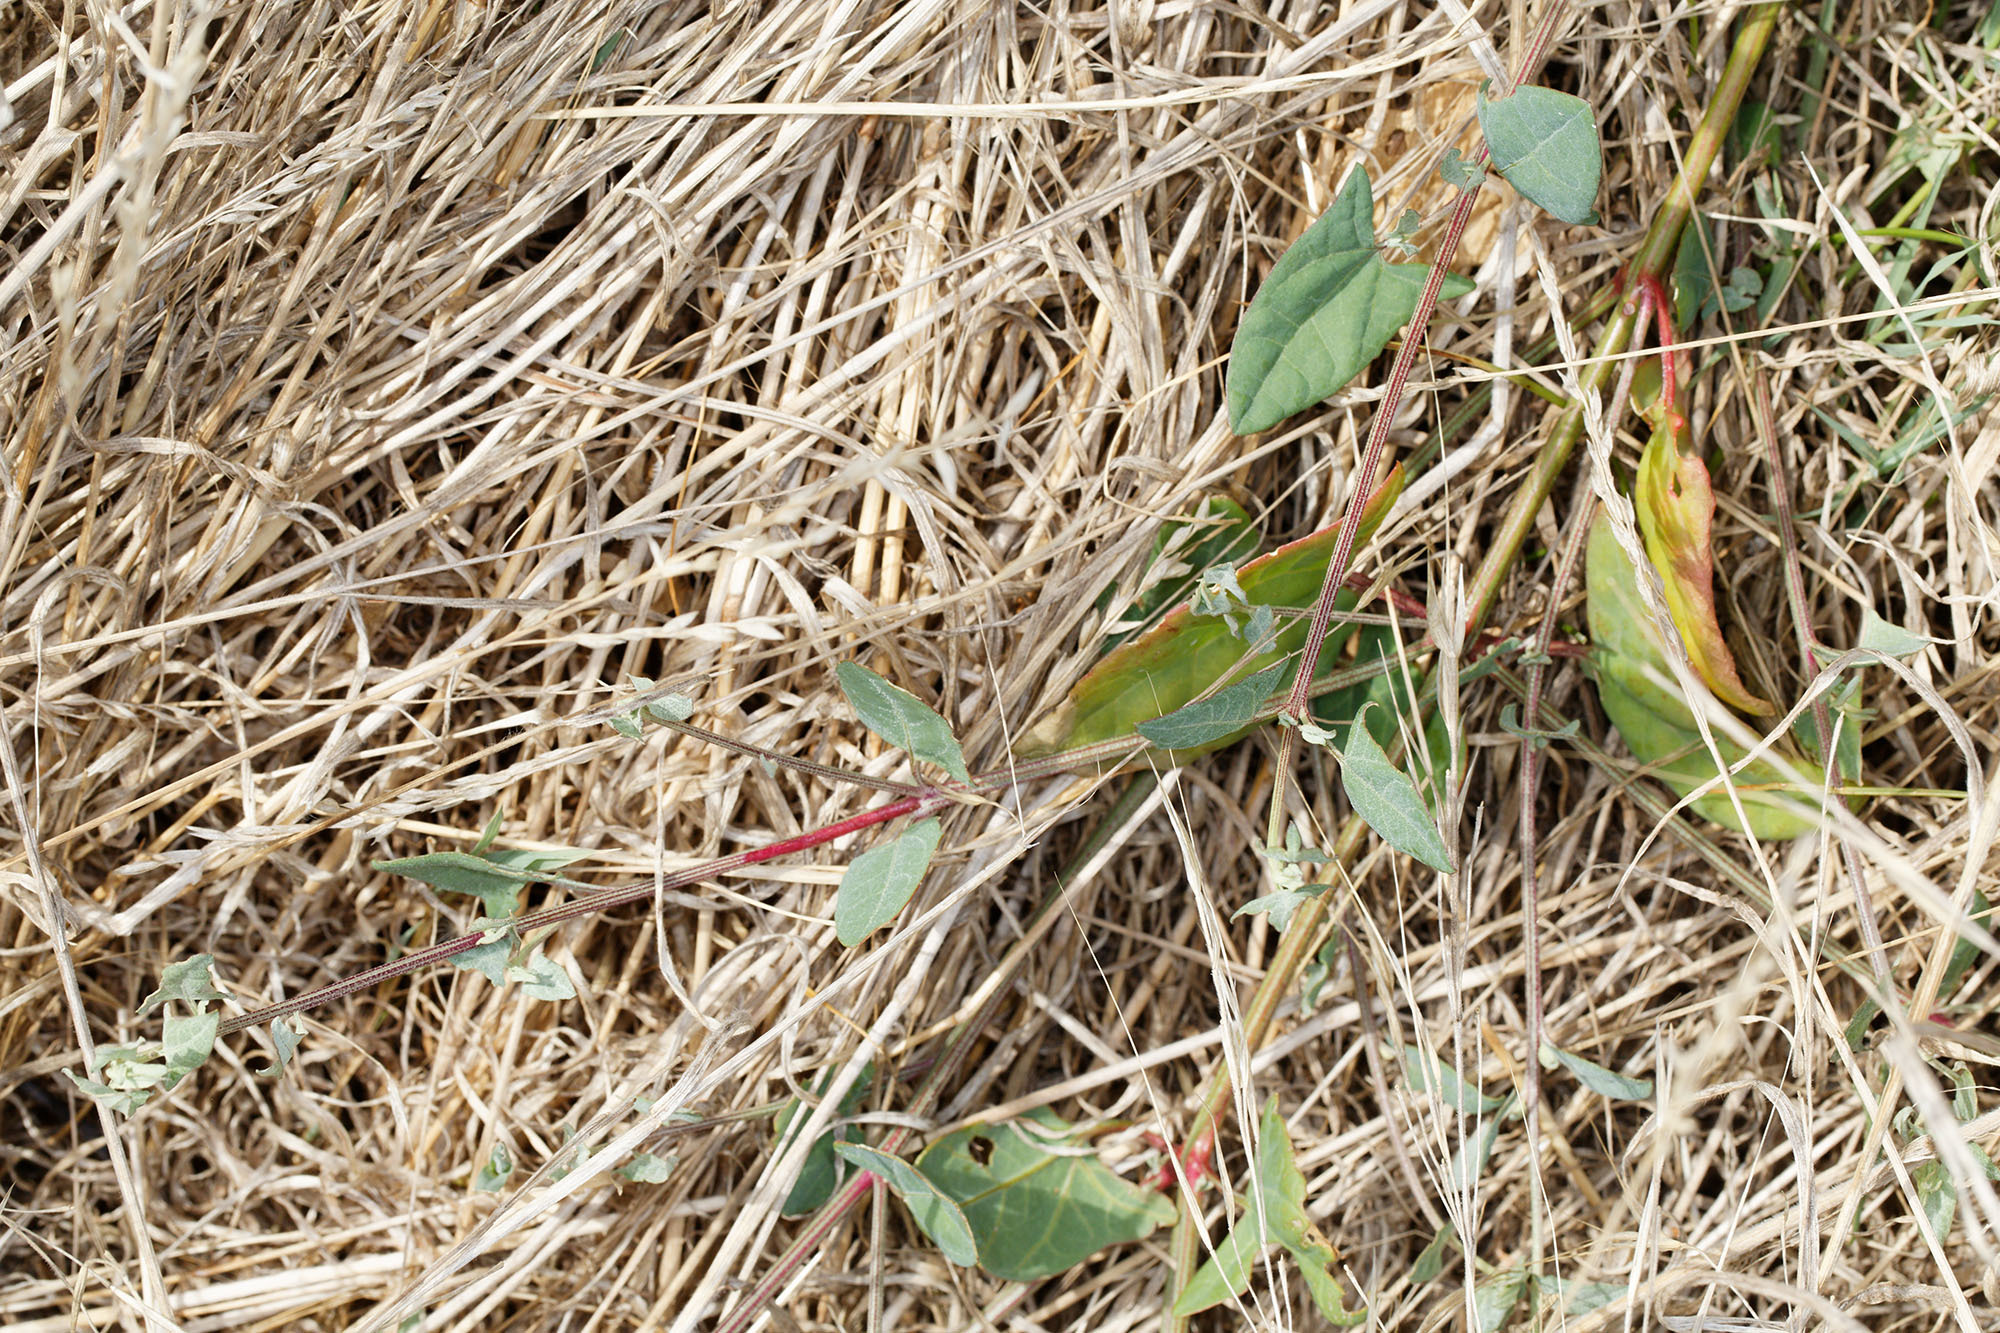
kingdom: Plantae
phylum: Tracheophyta
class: Magnoliopsida
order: Caryophyllales
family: Amaranthaceae
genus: Atriplex
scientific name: Atriplex prostrata
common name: Spear-leaved orache
